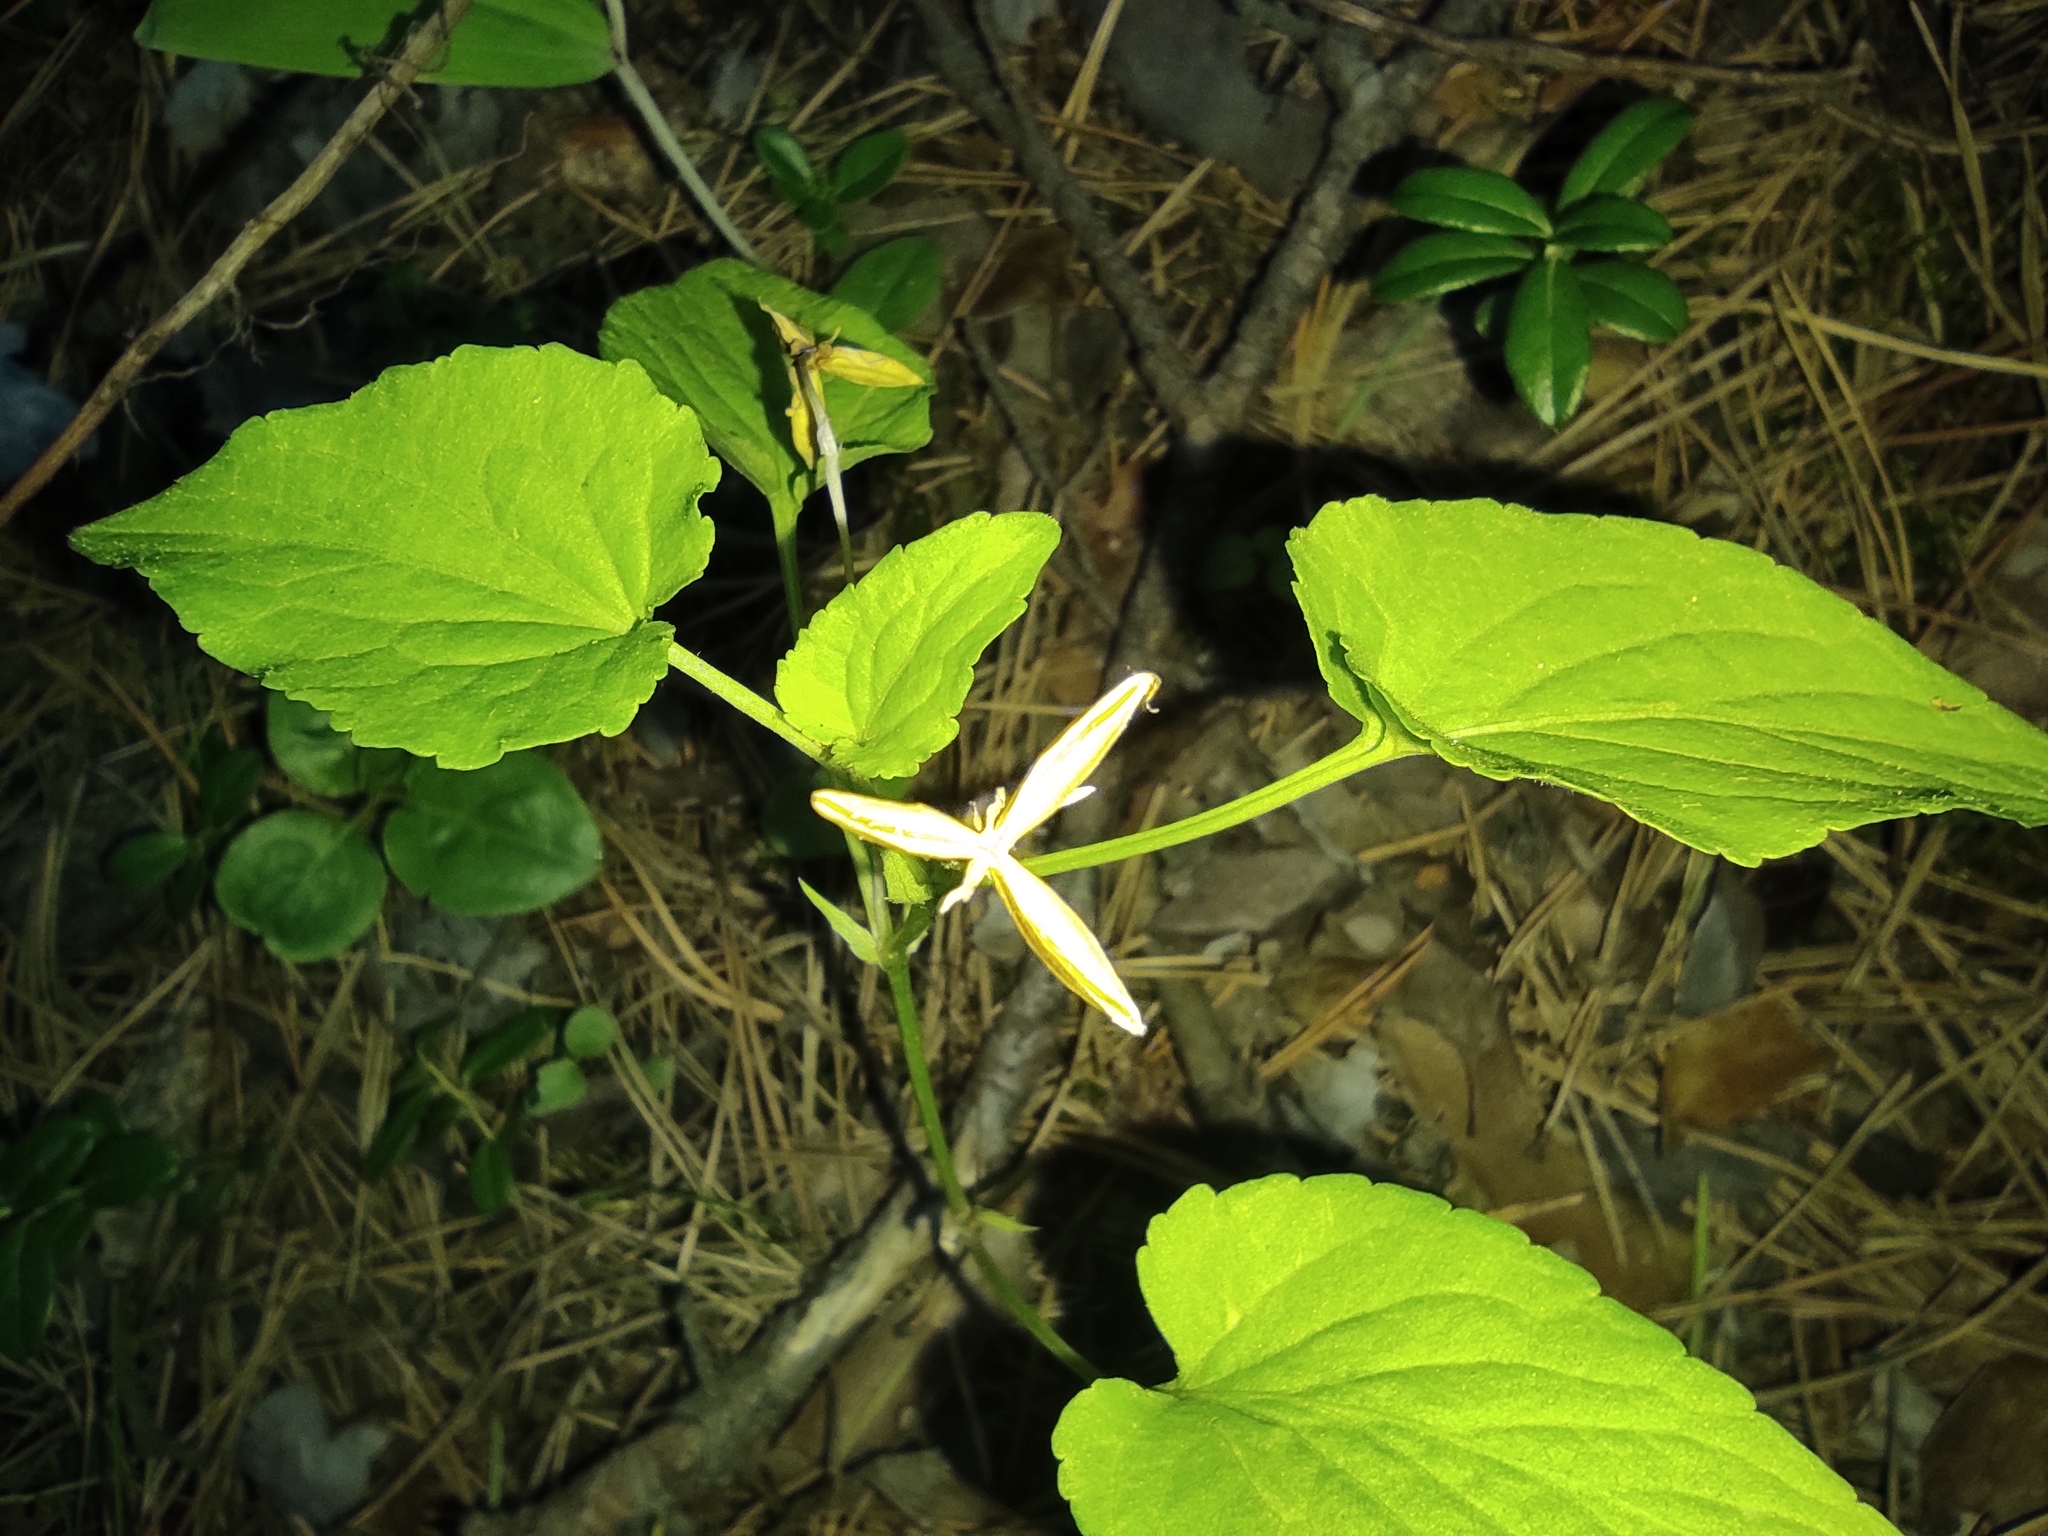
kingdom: Plantae
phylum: Tracheophyta
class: Magnoliopsida
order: Malpighiales
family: Violaceae
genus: Viola
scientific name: Viola
